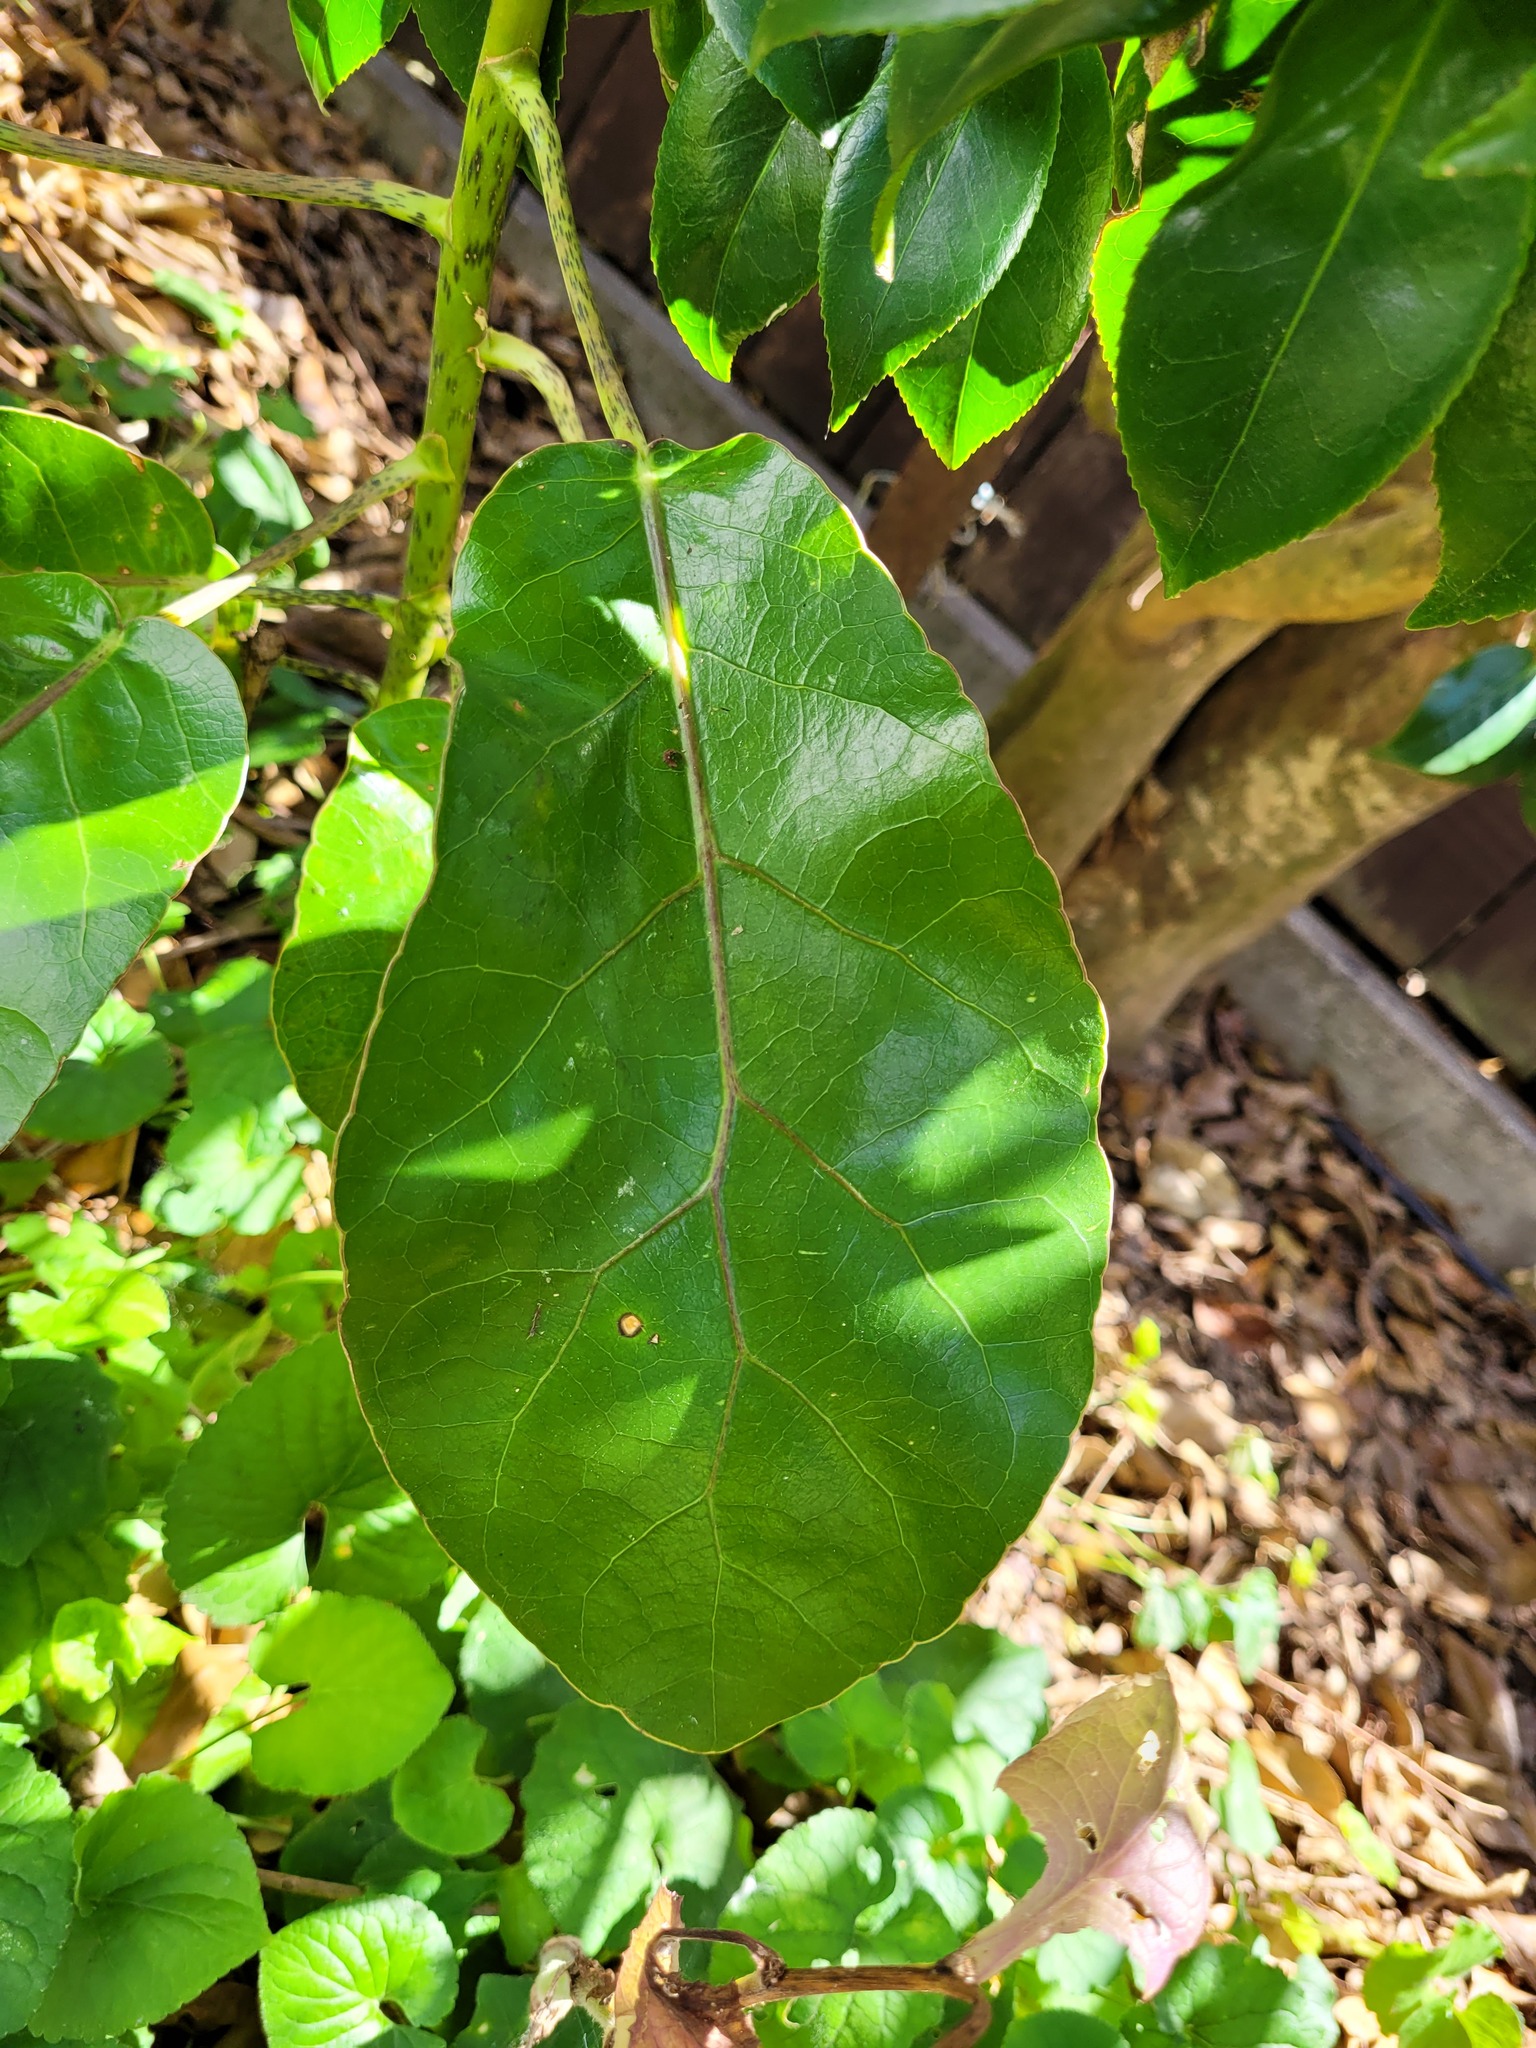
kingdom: Plantae
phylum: Tracheophyta
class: Magnoliopsida
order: Apiales
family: Araliaceae
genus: Meryta
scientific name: Meryta sinclairii
